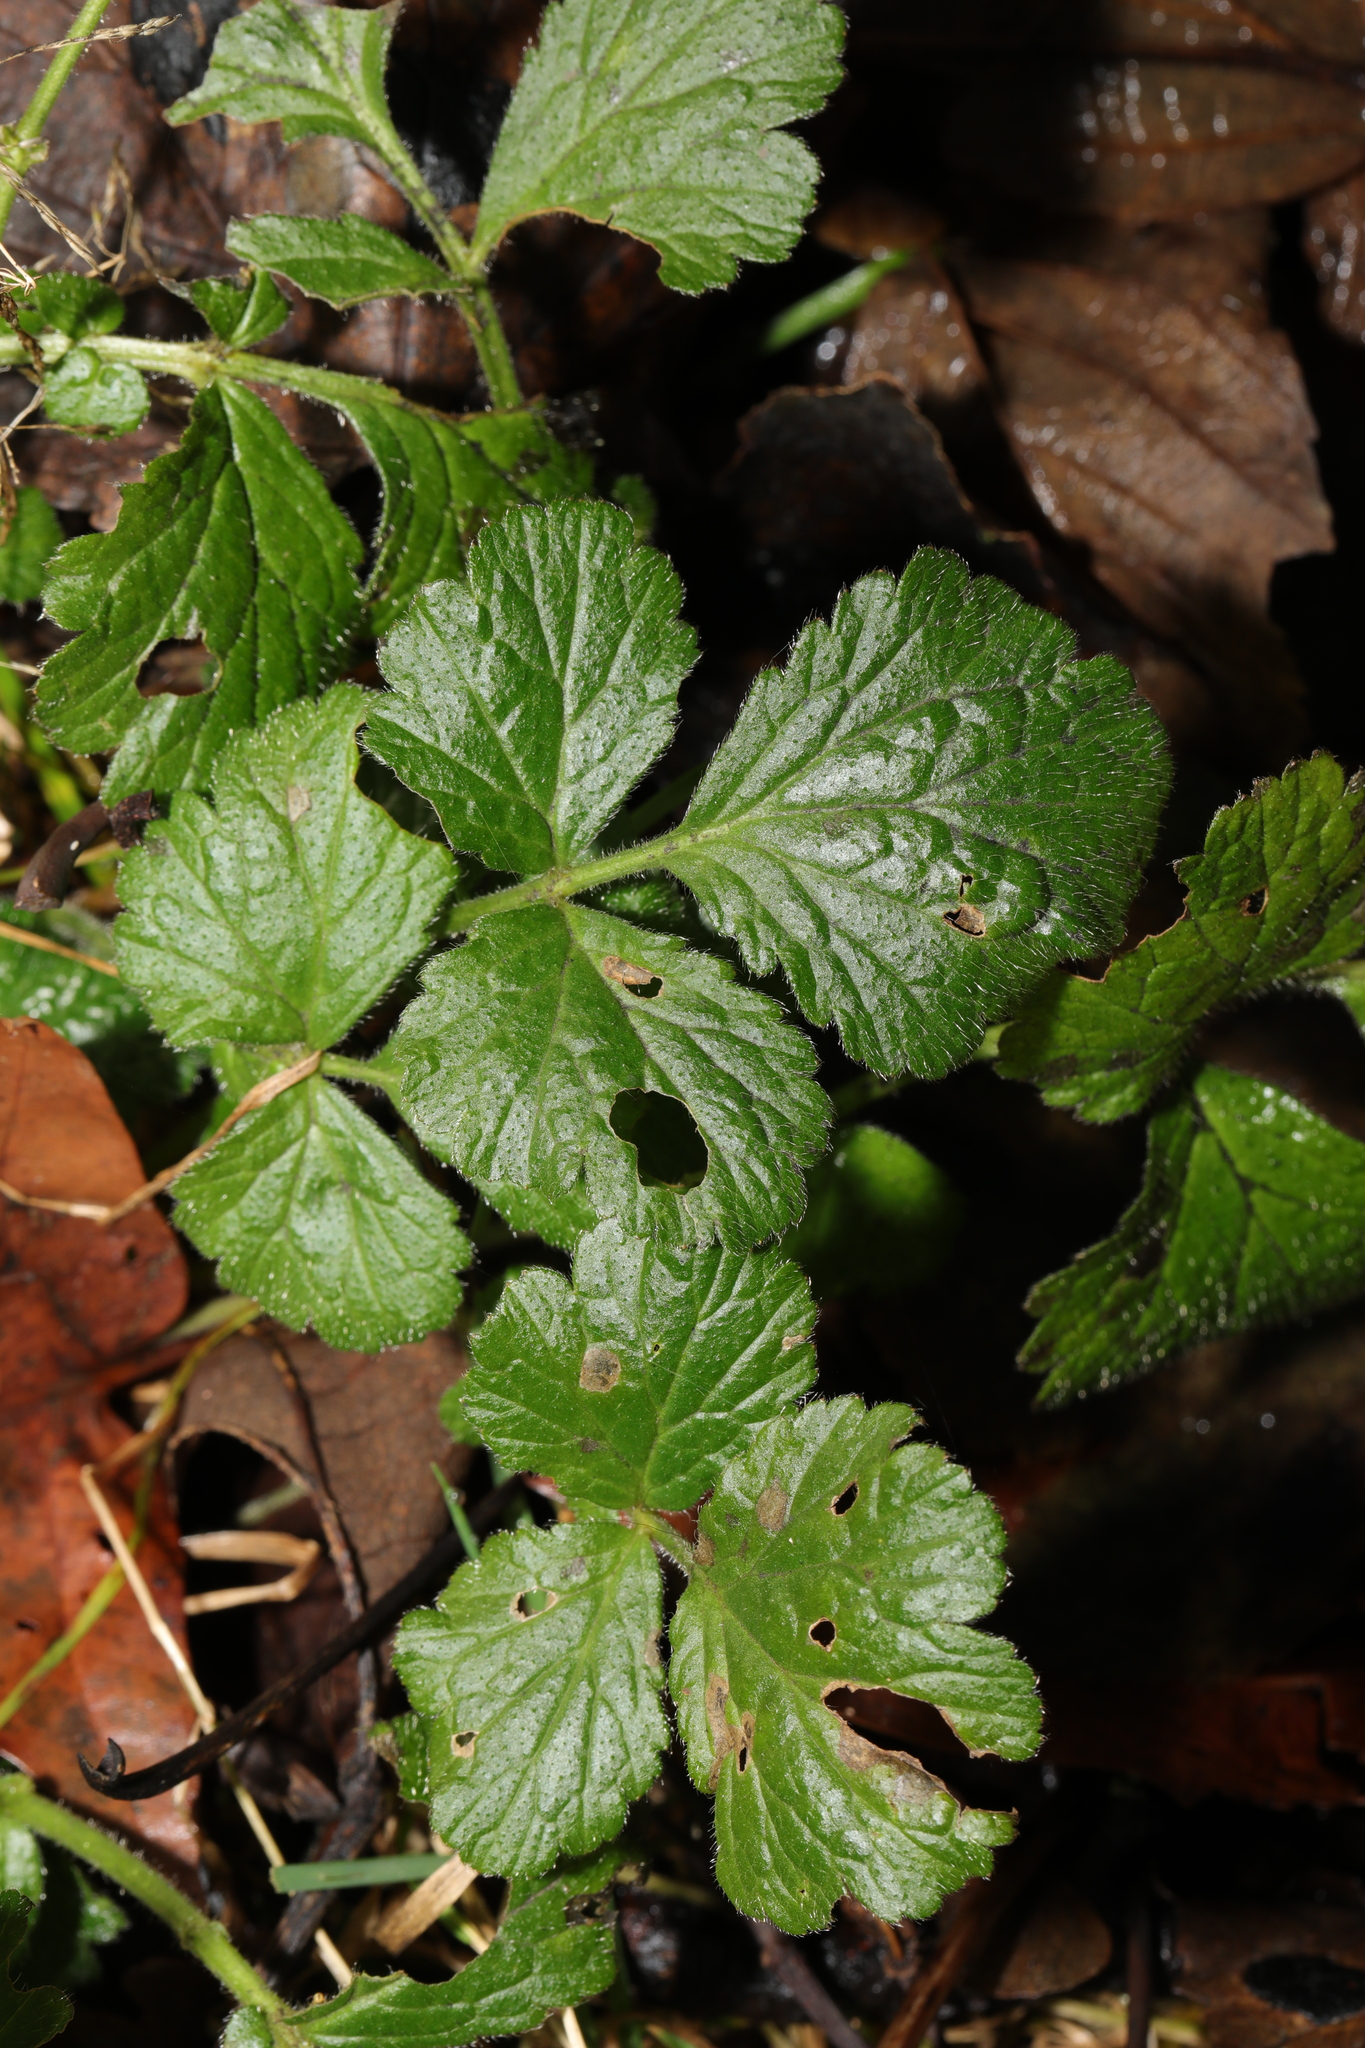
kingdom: Plantae
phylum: Tracheophyta
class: Magnoliopsida
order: Rosales
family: Rosaceae
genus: Geum
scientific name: Geum urbanum
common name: Wood avens
